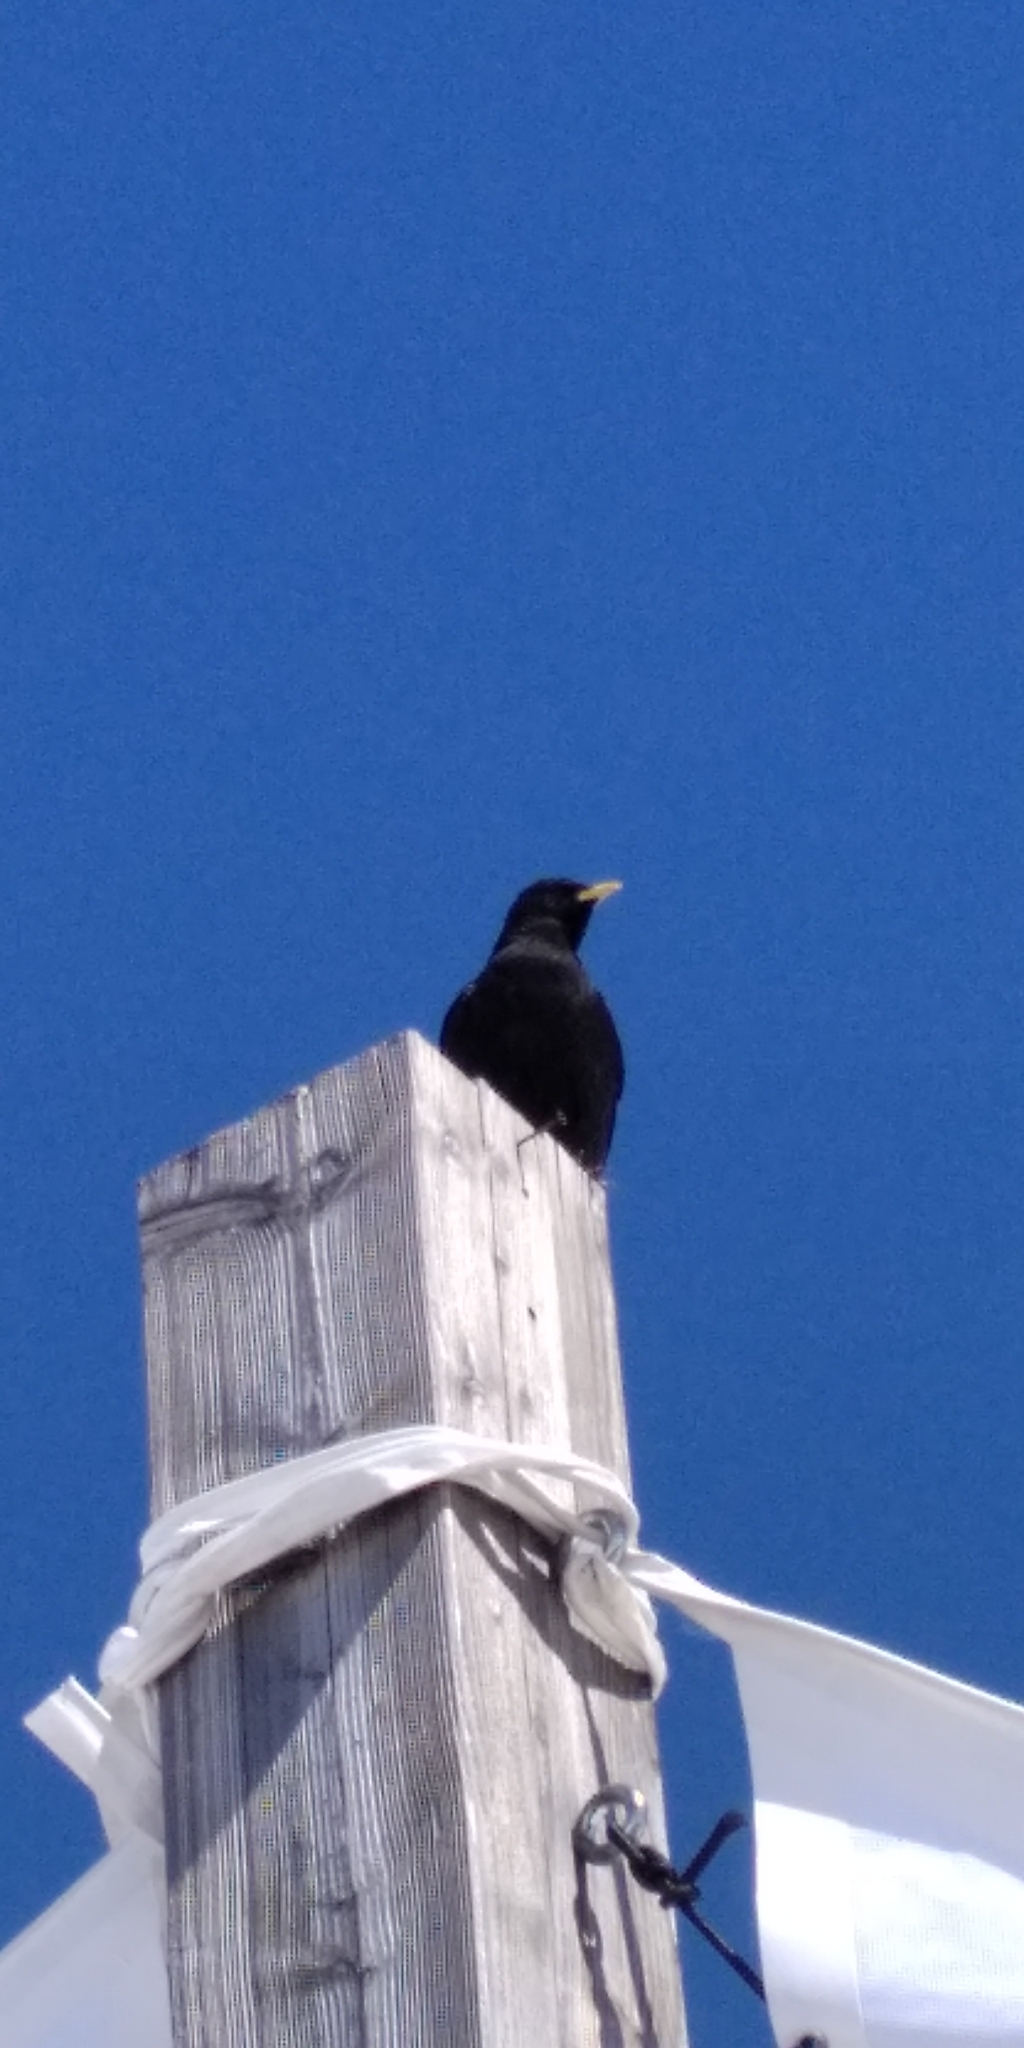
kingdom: Animalia
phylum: Chordata
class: Aves
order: Passeriformes
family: Corvidae
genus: Pyrrhocorax
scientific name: Pyrrhocorax graculus
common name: Alpine chough
